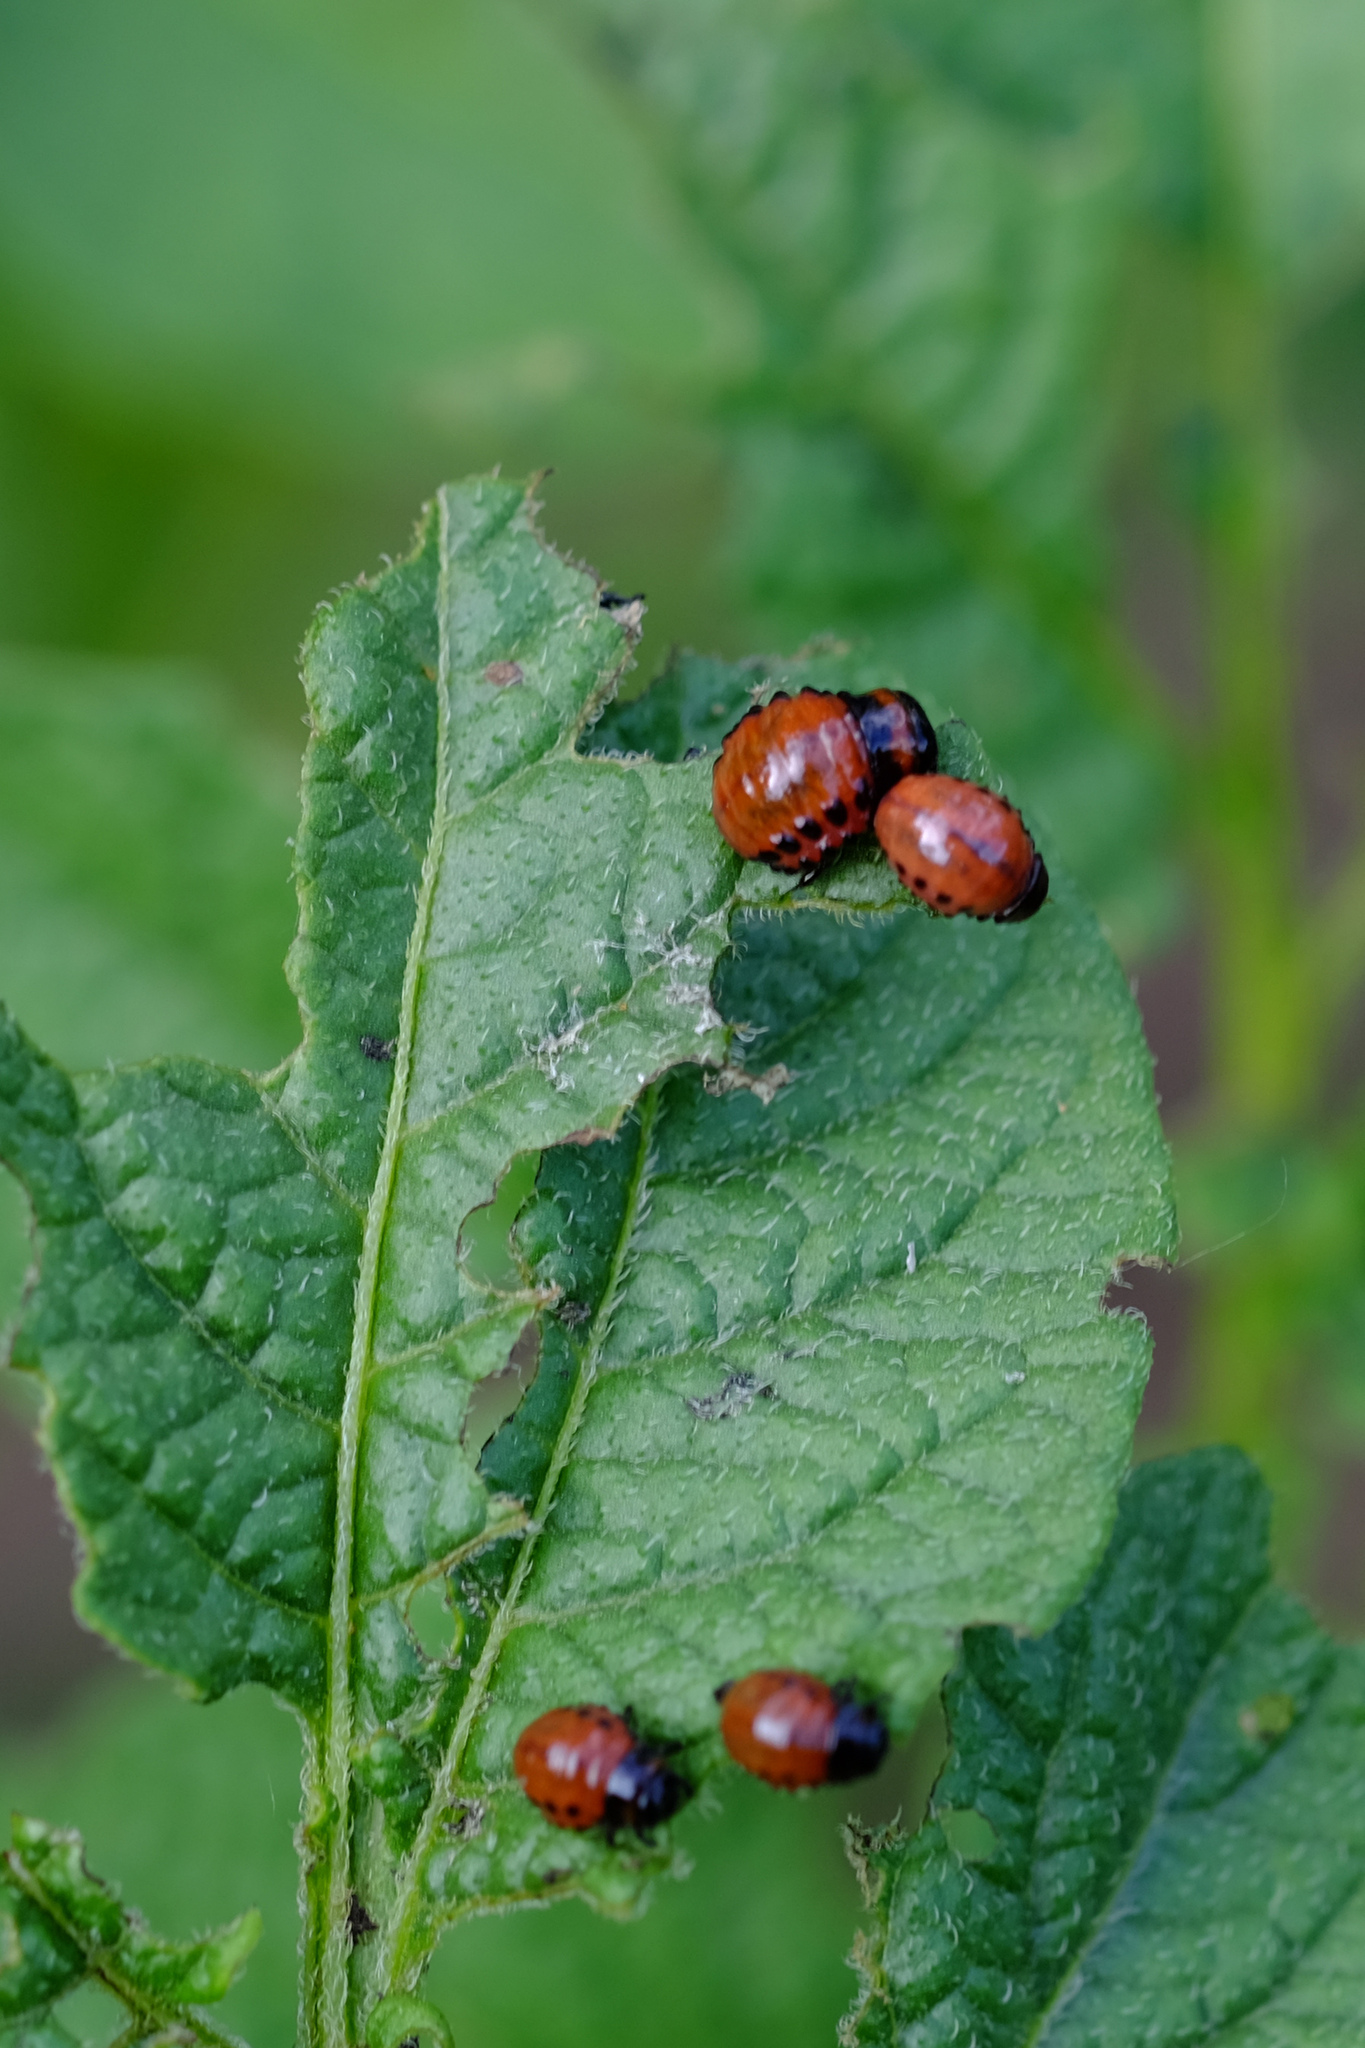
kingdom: Animalia
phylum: Arthropoda
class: Insecta
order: Coleoptera
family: Chrysomelidae
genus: Leptinotarsa
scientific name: Leptinotarsa decemlineata
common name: Colorado potato beetle
